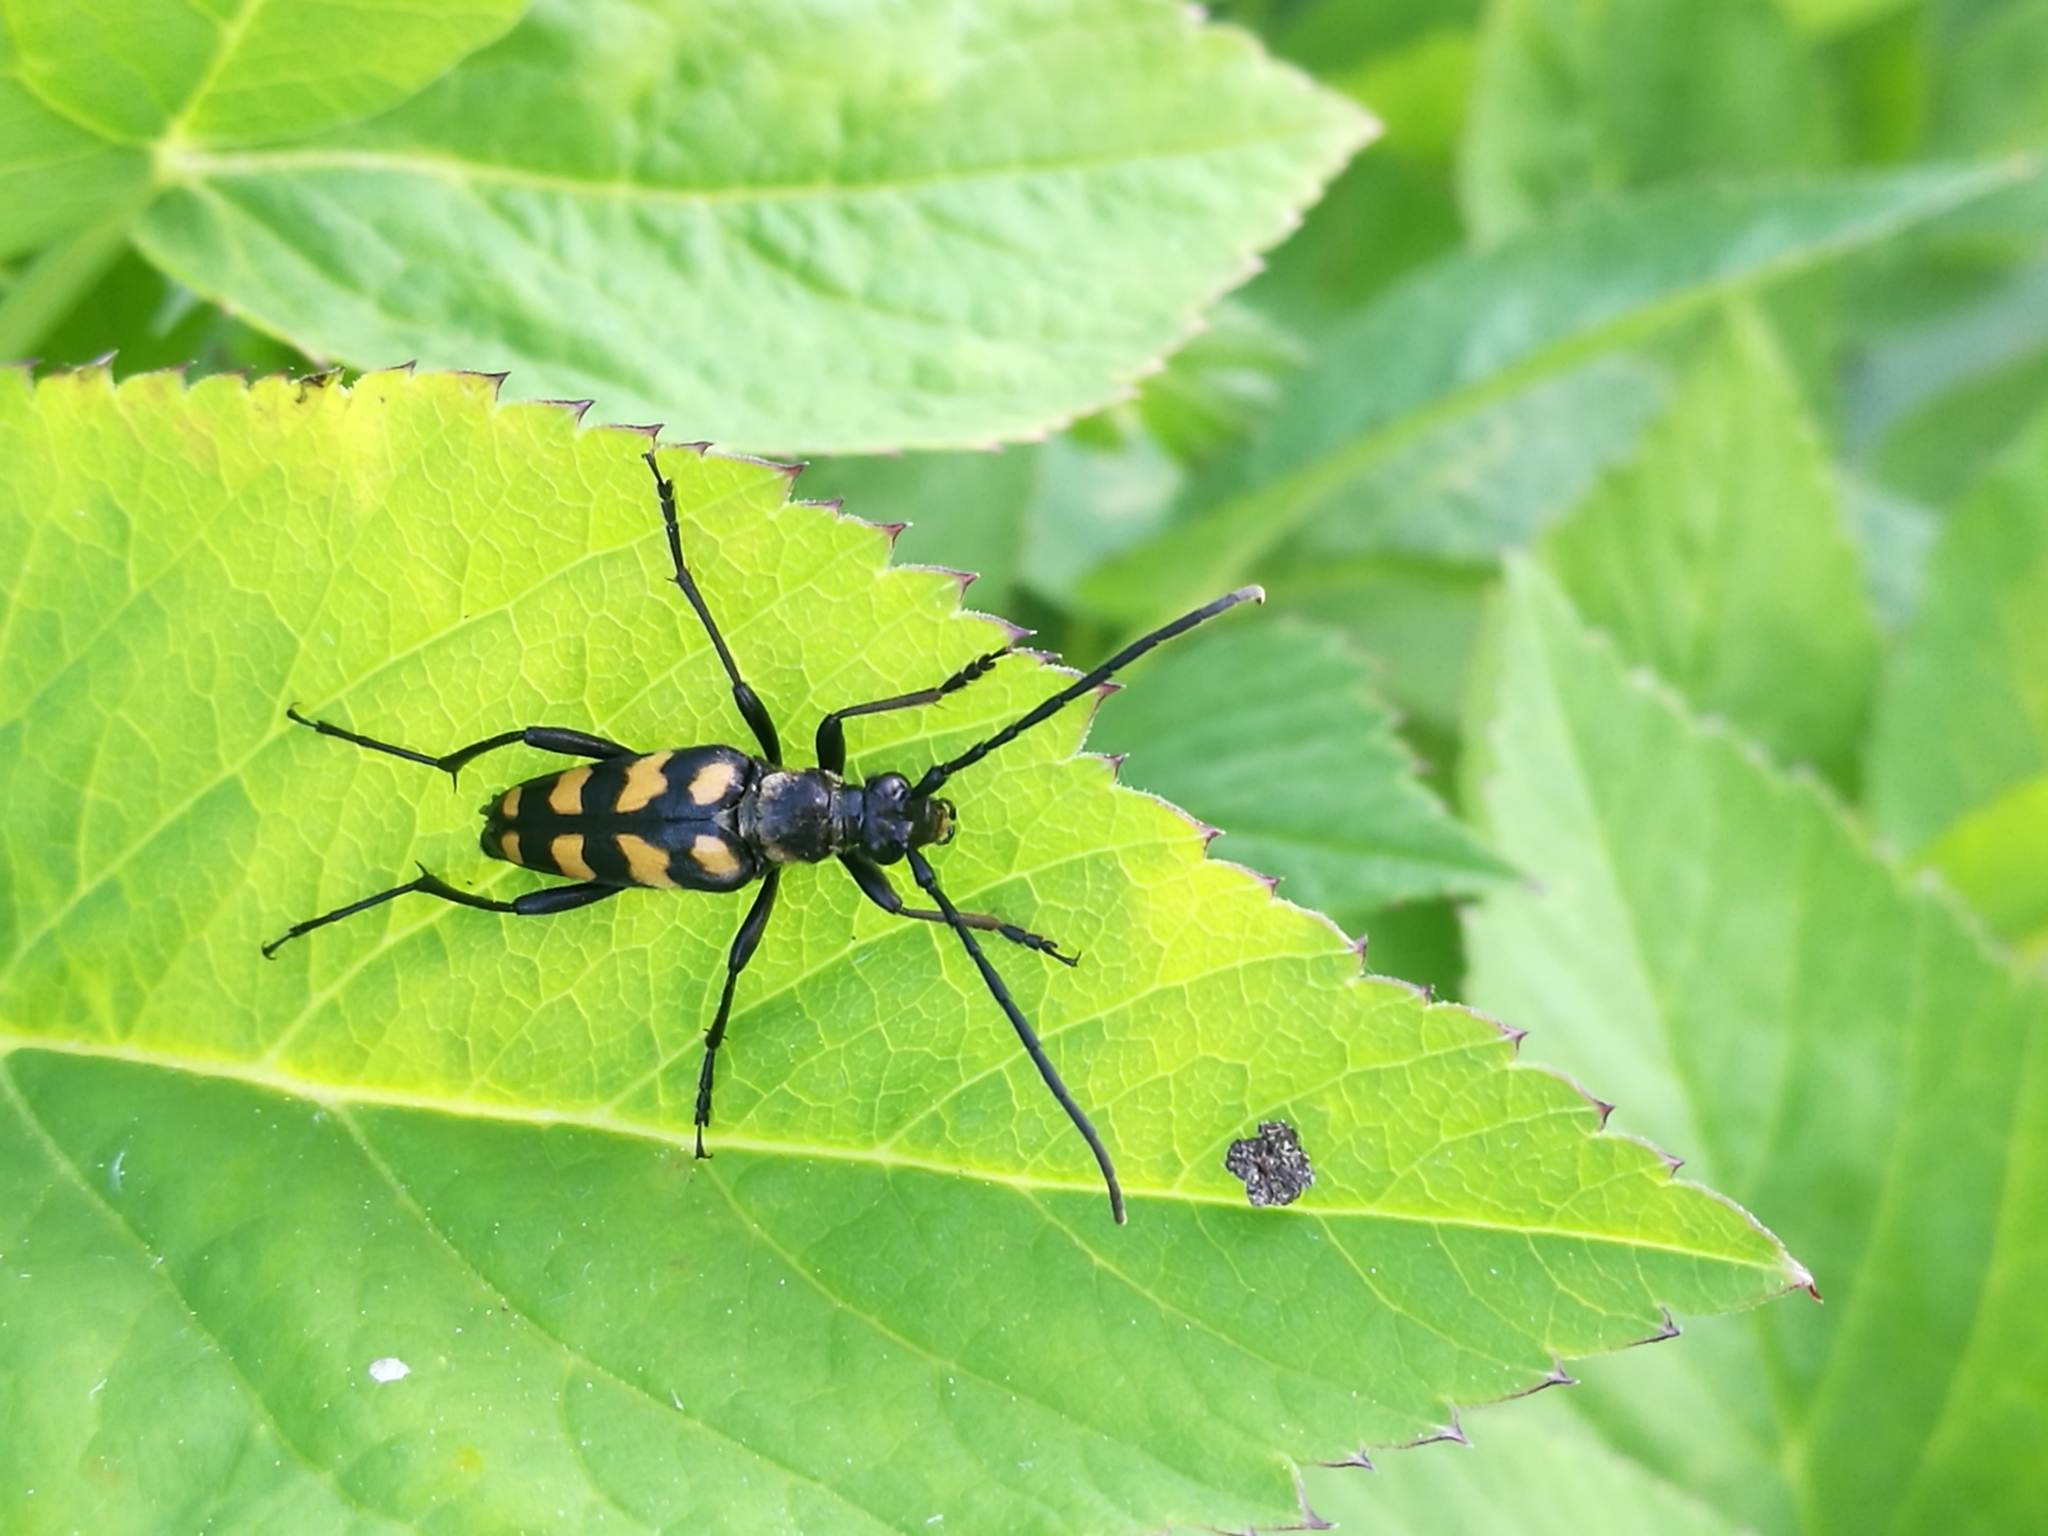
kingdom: Animalia
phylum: Arthropoda
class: Insecta
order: Coleoptera
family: Cerambycidae
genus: Leptura
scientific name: Leptura quadrifasciata
